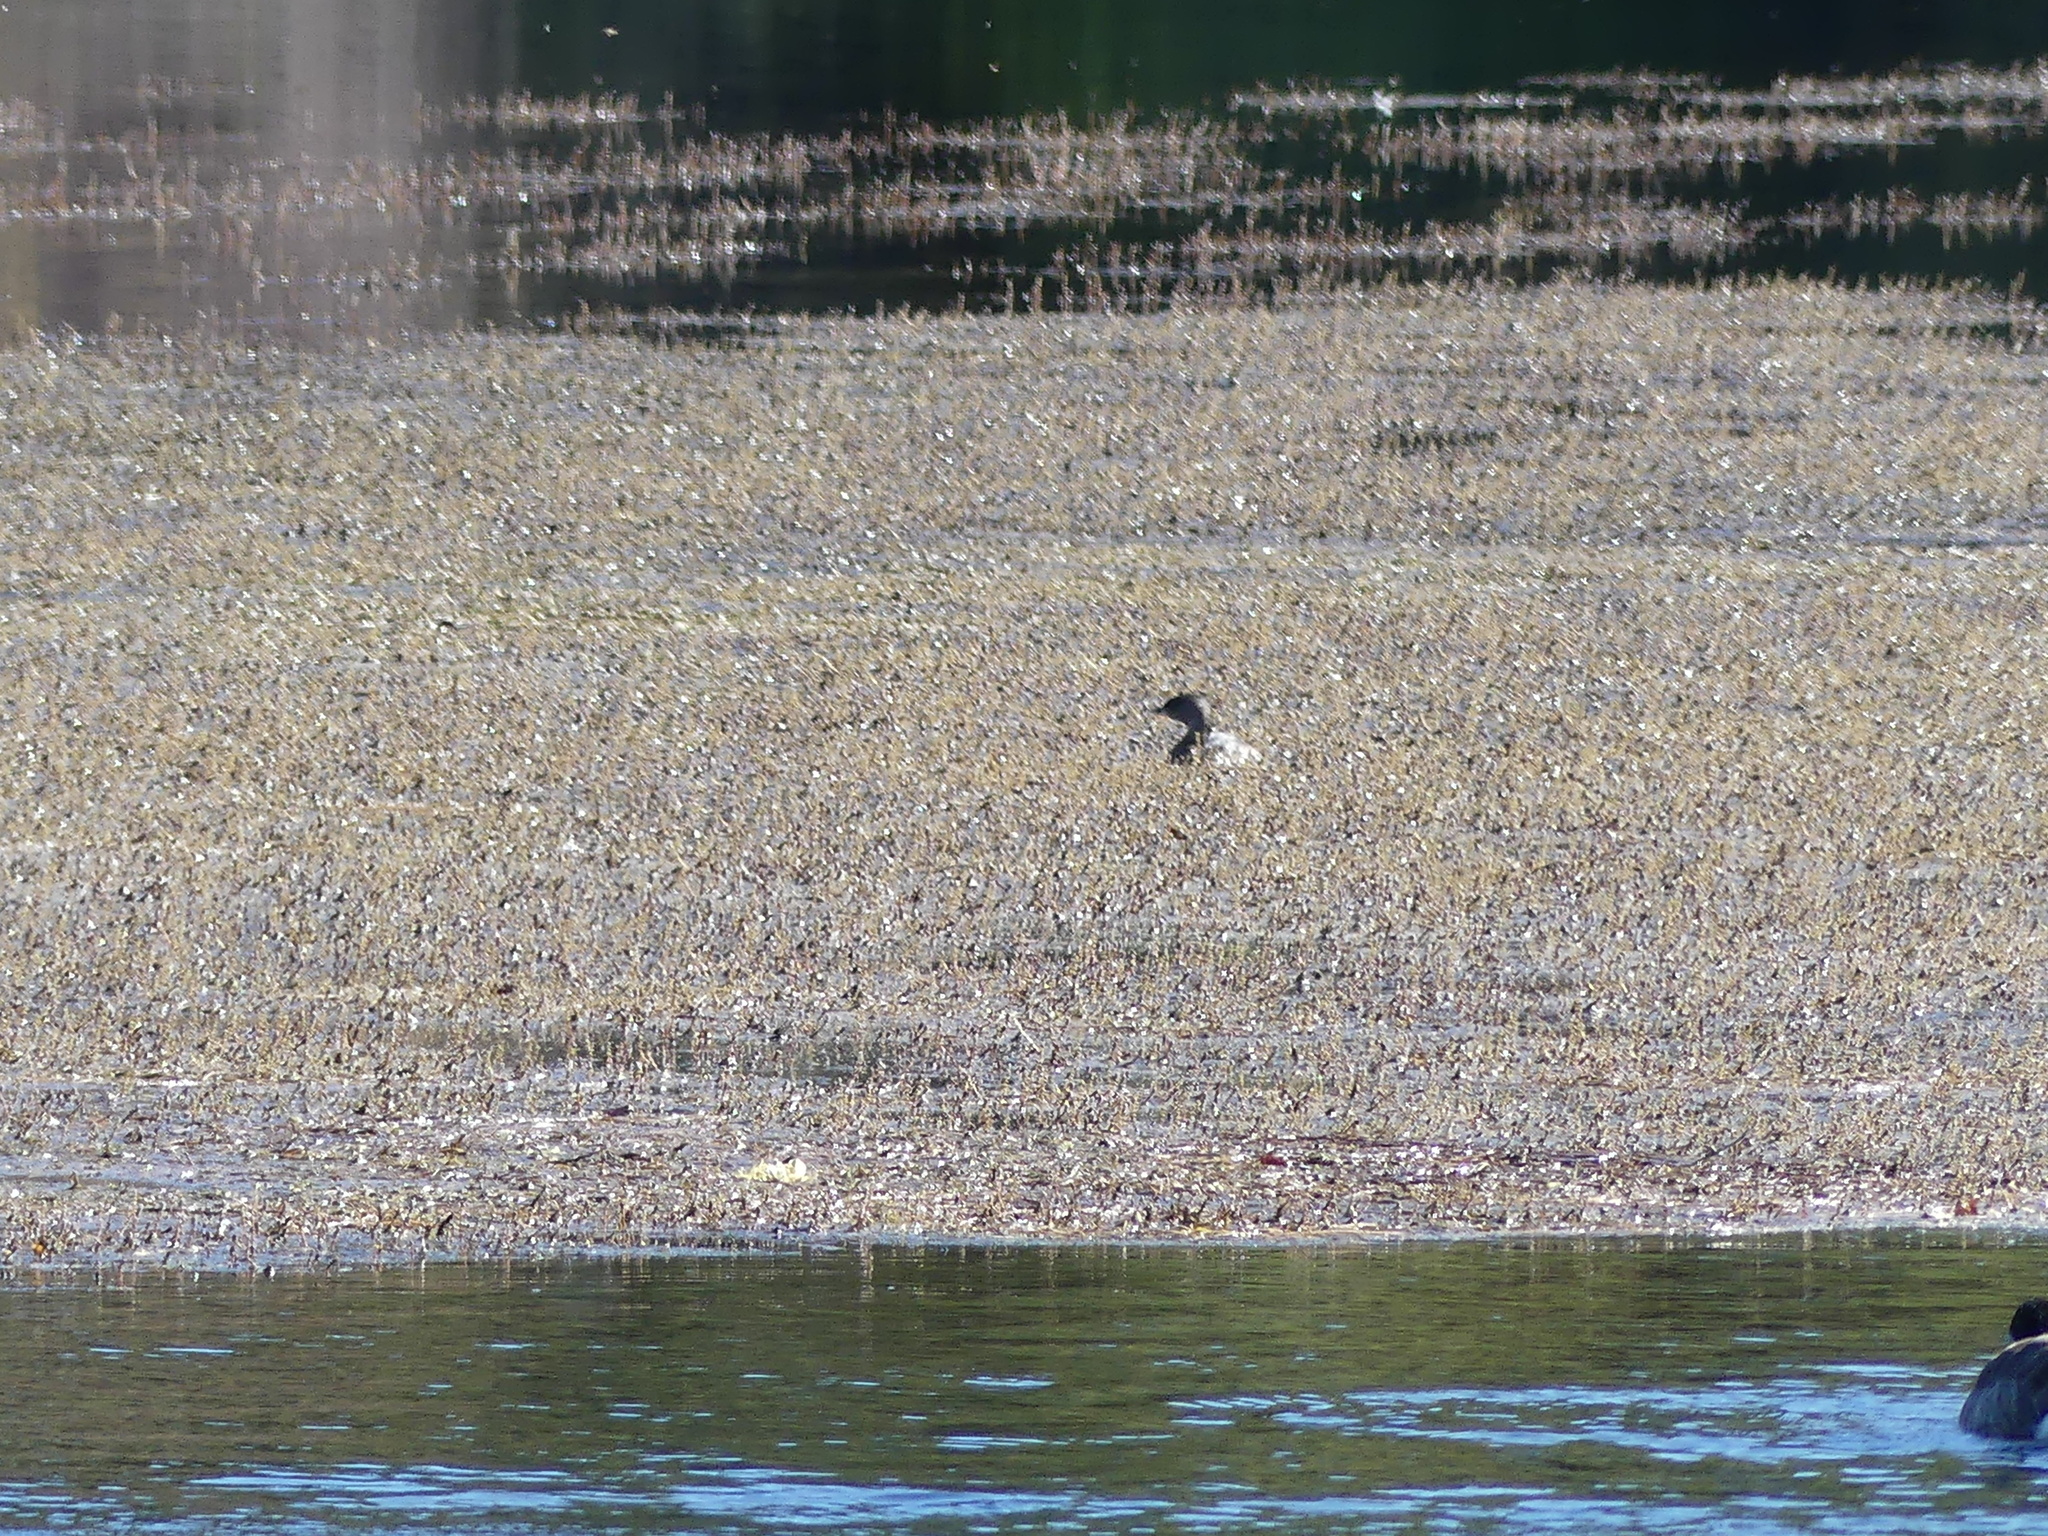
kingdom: Animalia
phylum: Chordata
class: Aves
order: Podicipediformes
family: Podicipedidae
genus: Podilymbus
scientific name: Podilymbus podiceps
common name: Pied-billed grebe
